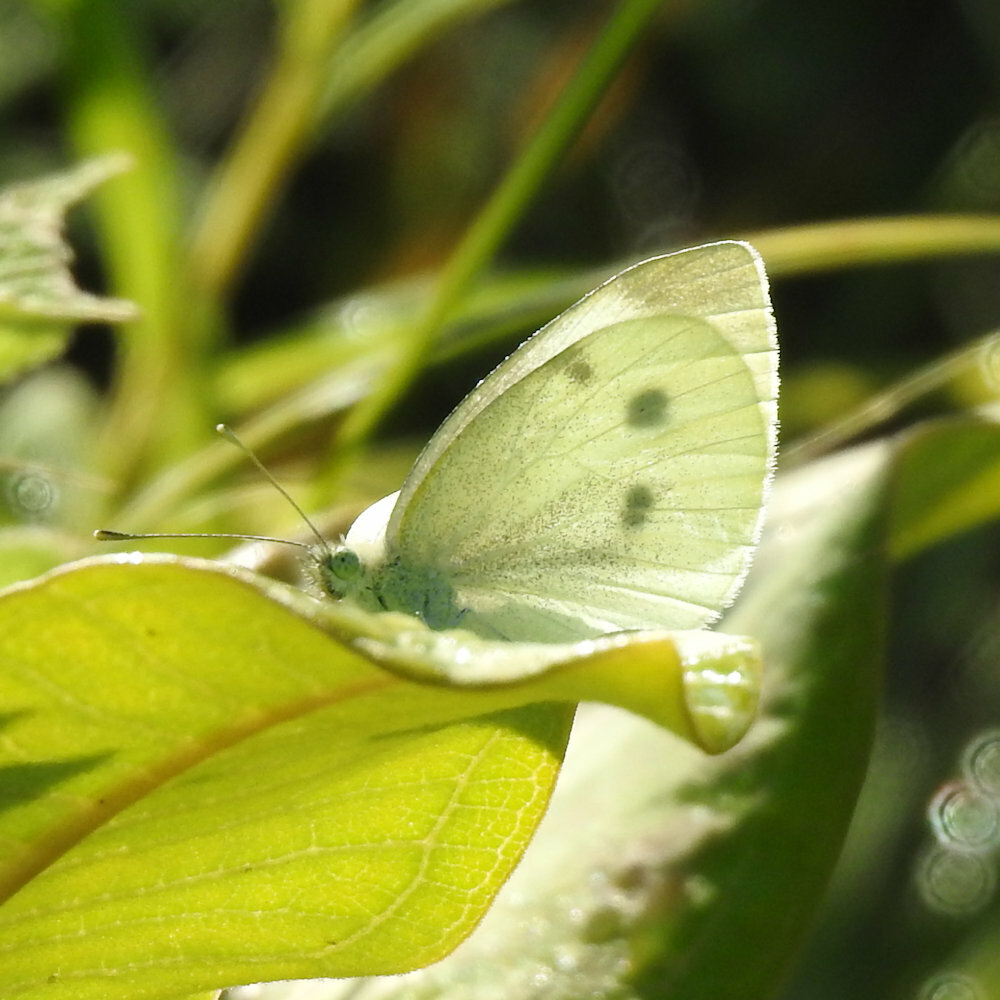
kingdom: Animalia
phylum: Arthropoda
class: Insecta
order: Lepidoptera
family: Pieridae
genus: Pieris
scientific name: Pieris rapae
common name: Small white
